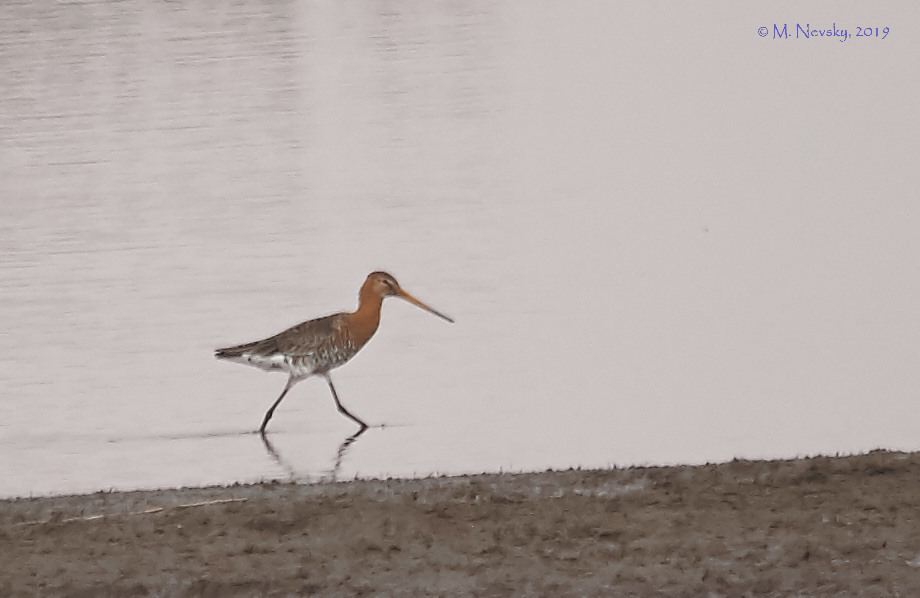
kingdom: Animalia
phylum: Chordata
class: Aves
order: Charadriiformes
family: Scolopacidae
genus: Limosa
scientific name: Limosa limosa
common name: Black-tailed godwit
